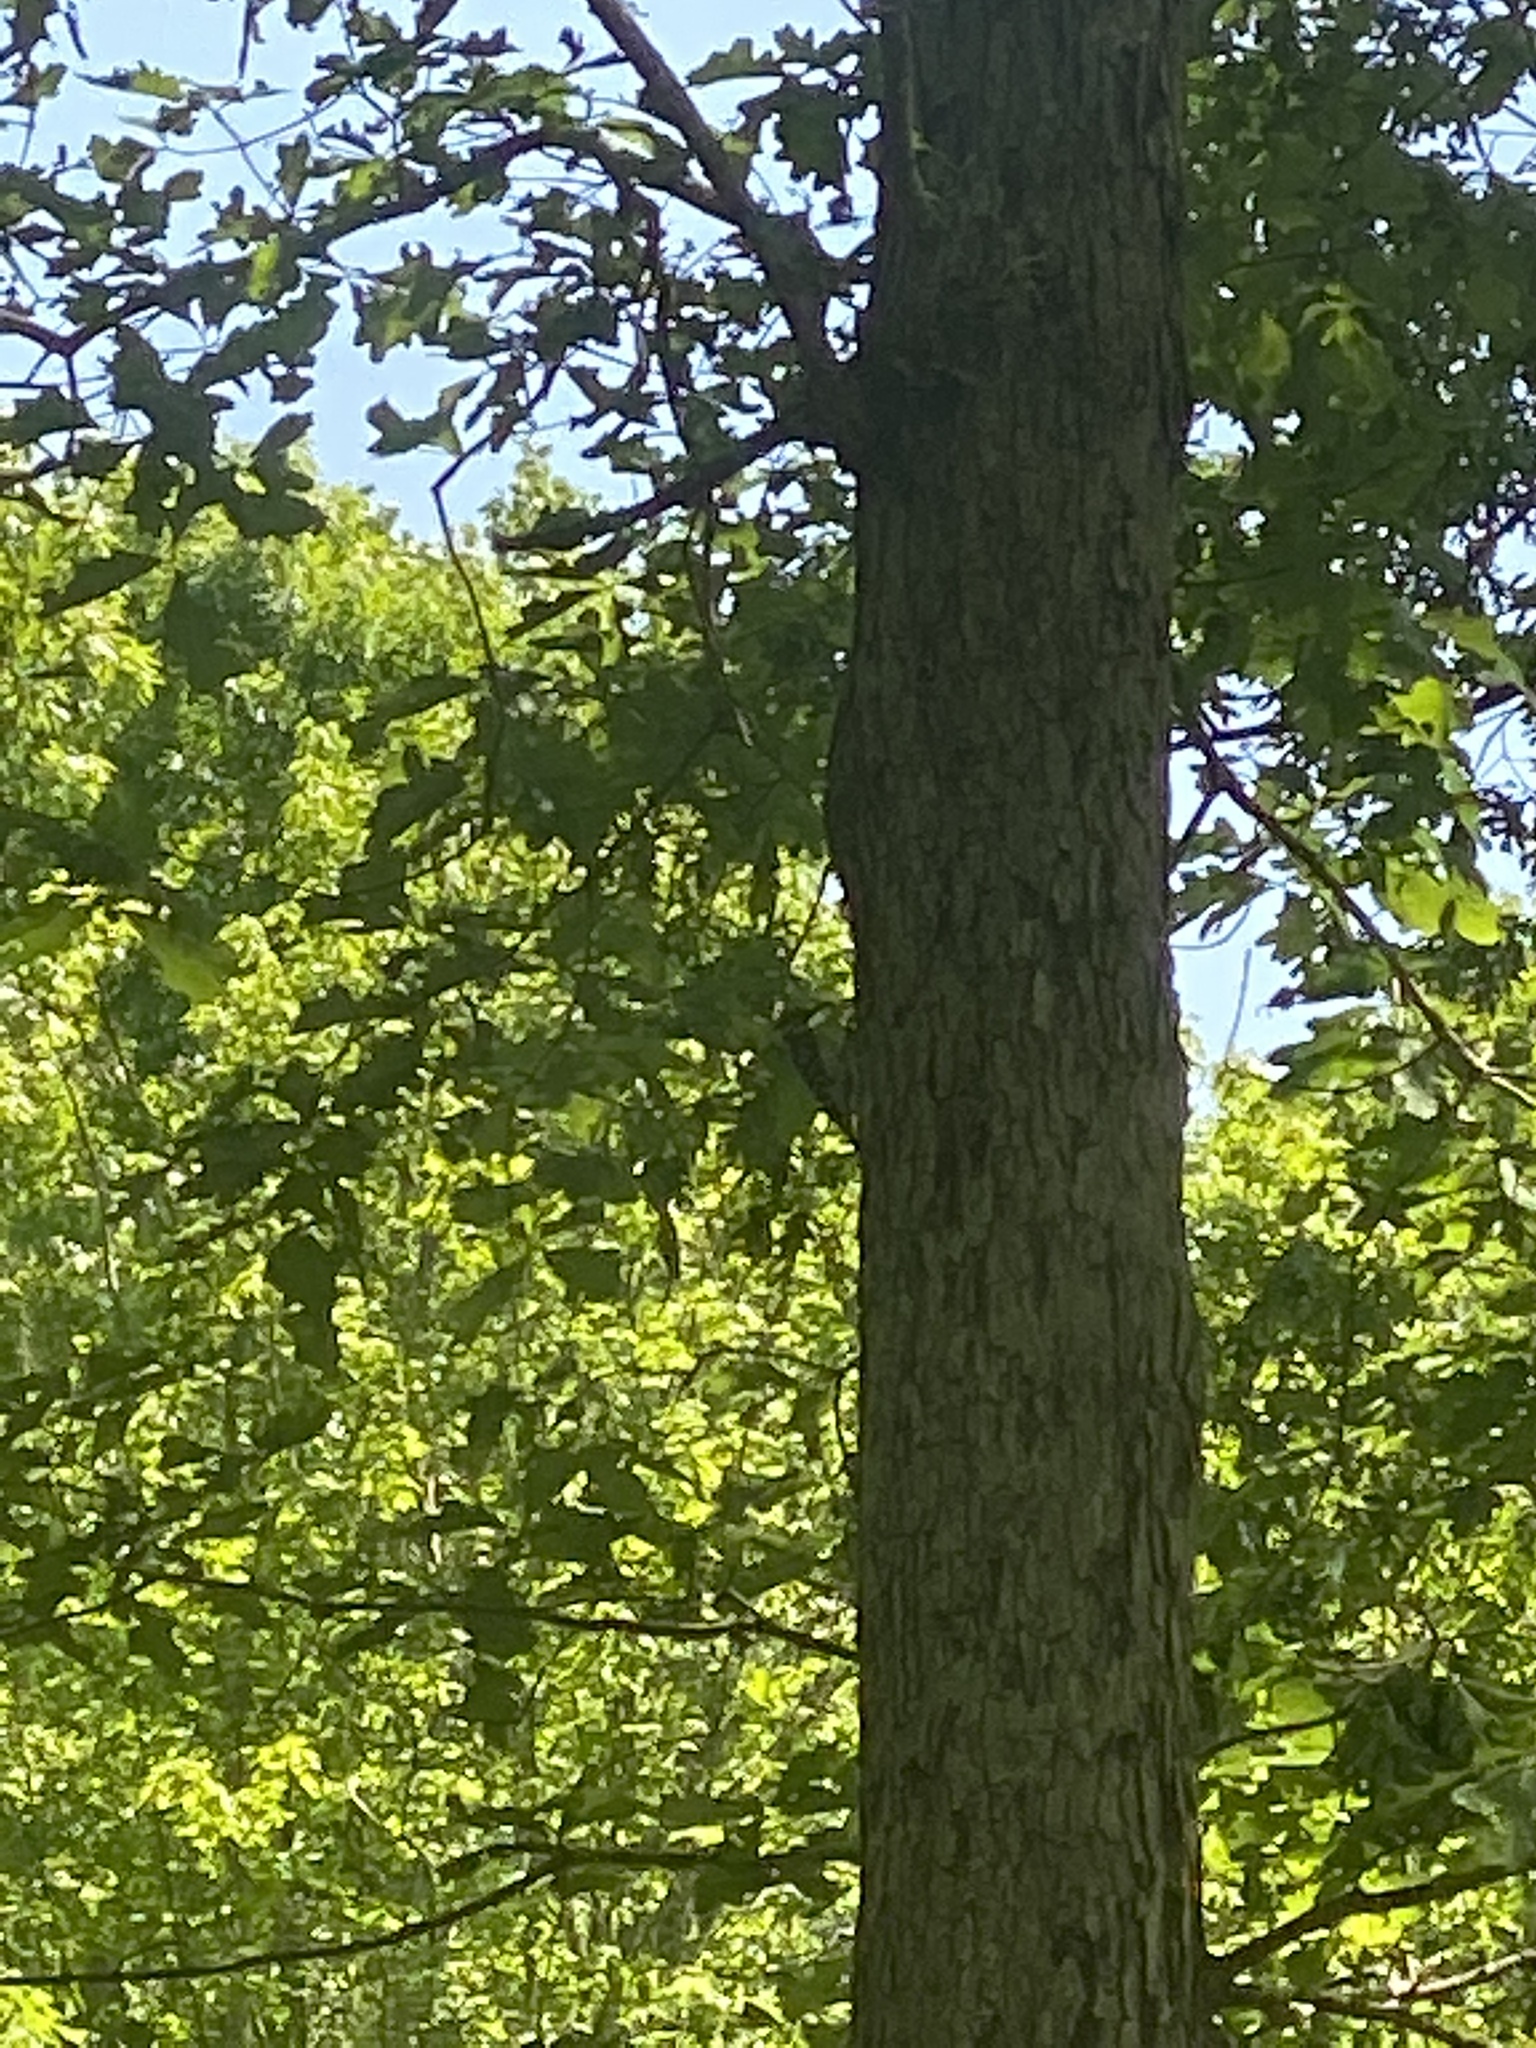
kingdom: Animalia
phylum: Chordata
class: Aves
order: Piciformes
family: Picidae
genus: Leuconotopicus
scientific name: Leuconotopicus villosus
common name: Hairy woodpecker
